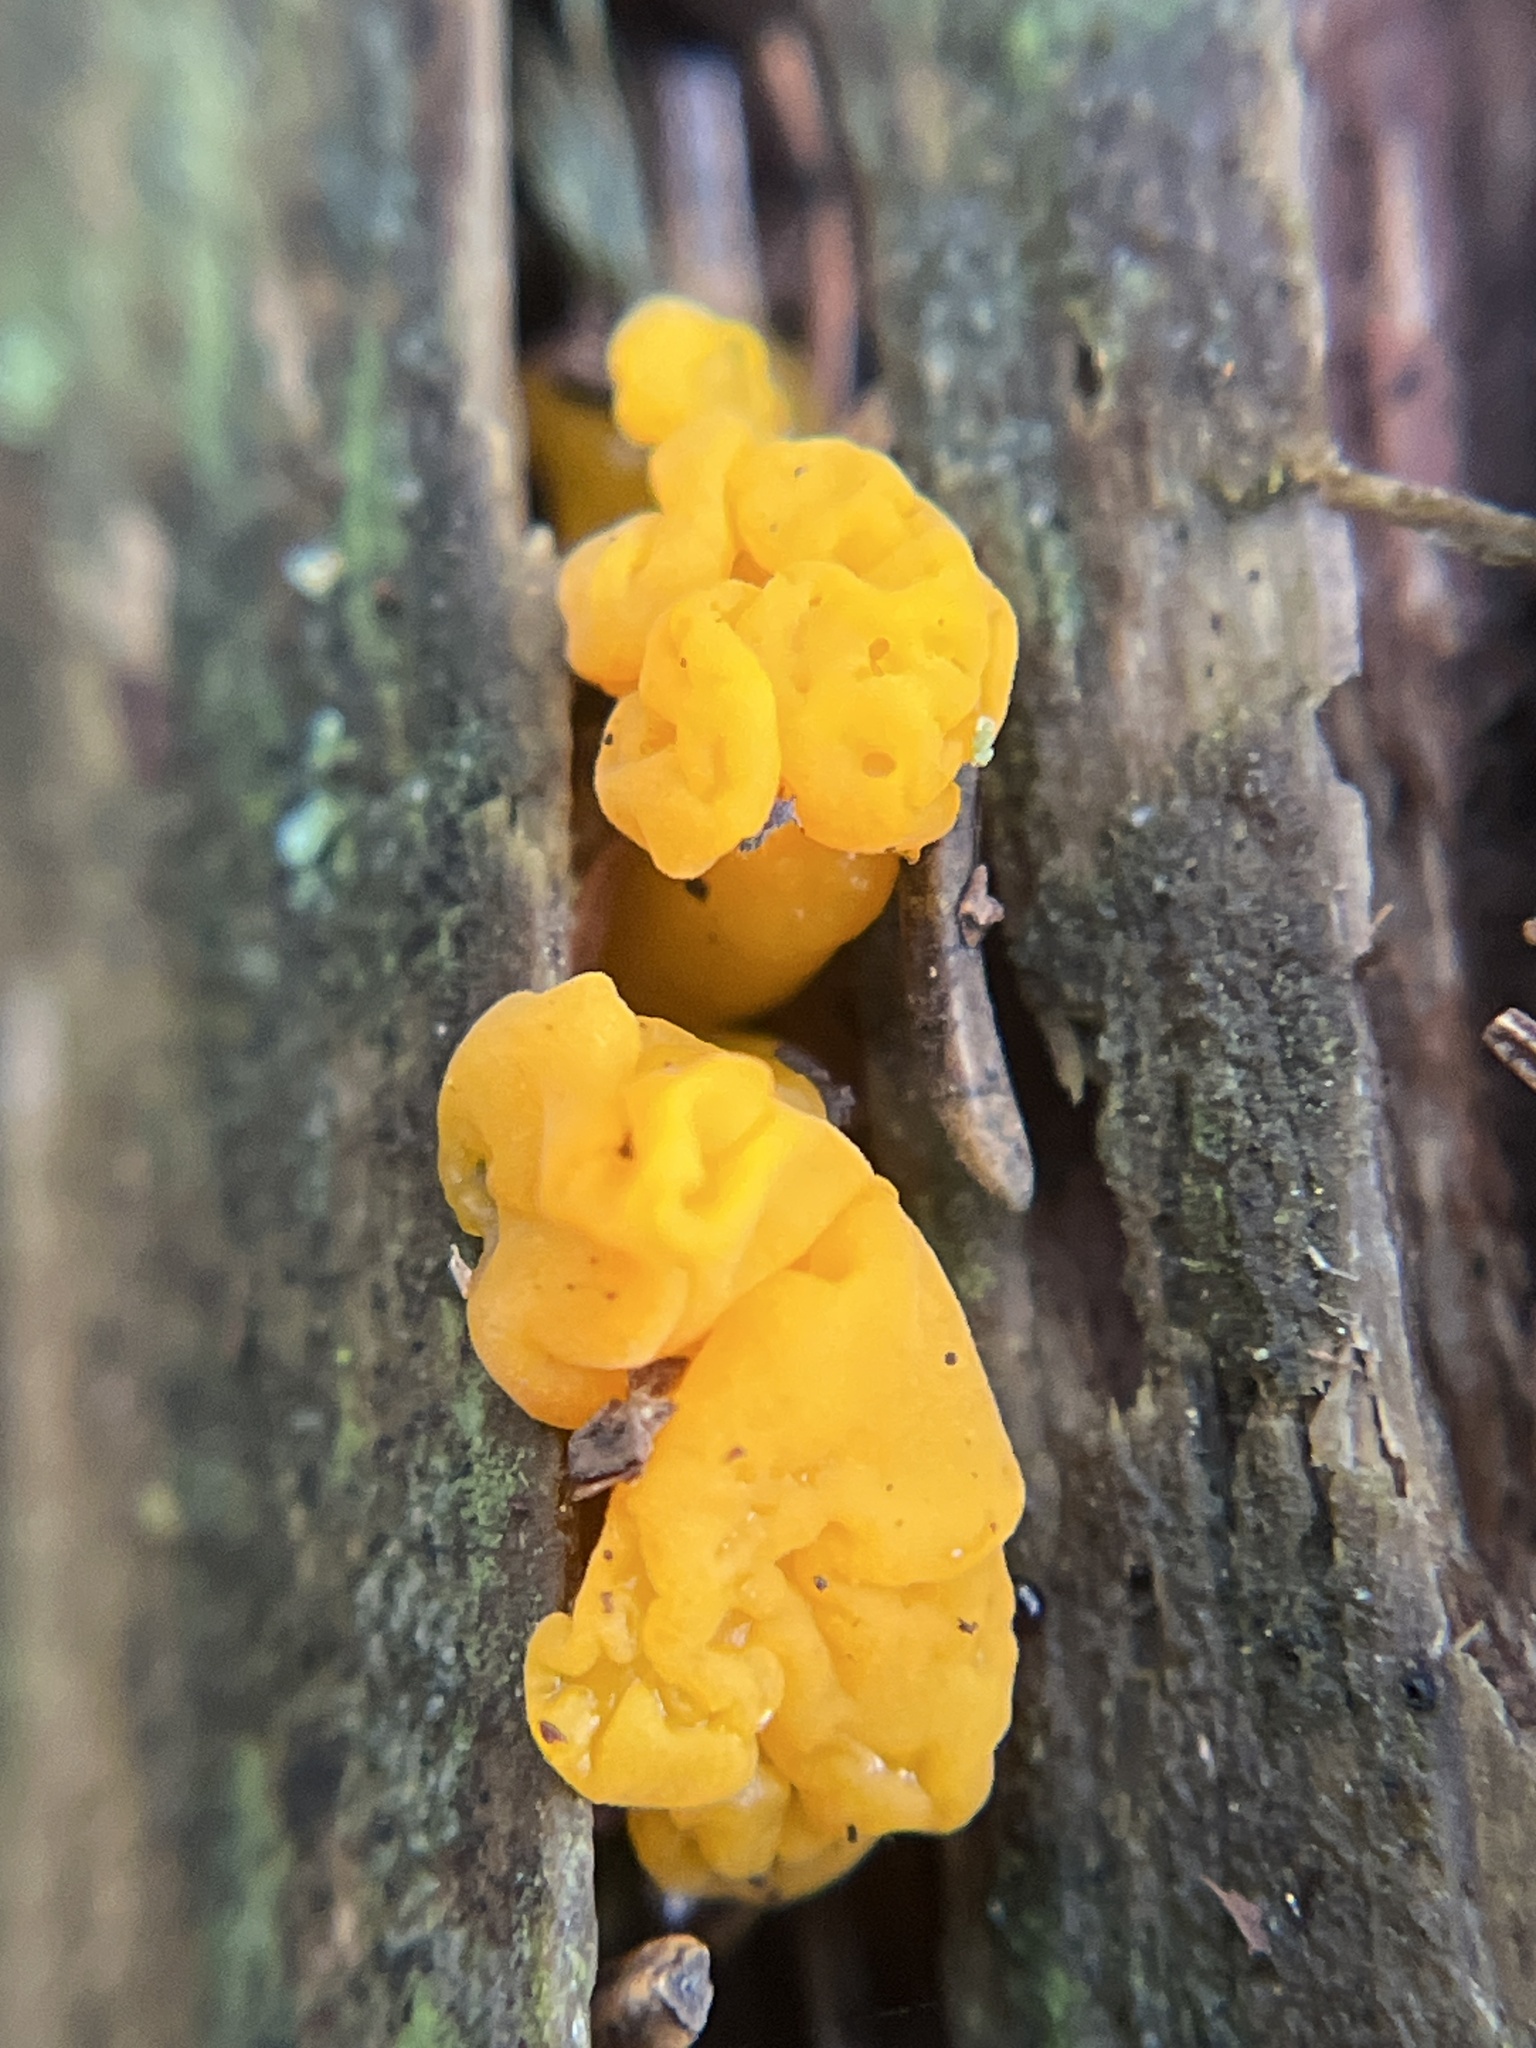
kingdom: Fungi
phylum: Basidiomycota
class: Dacrymycetes
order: Dacrymycetales
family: Dacrymycetaceae
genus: Dacrymyces
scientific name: Dacrymyces chrysospermus
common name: Orange jelly spot
